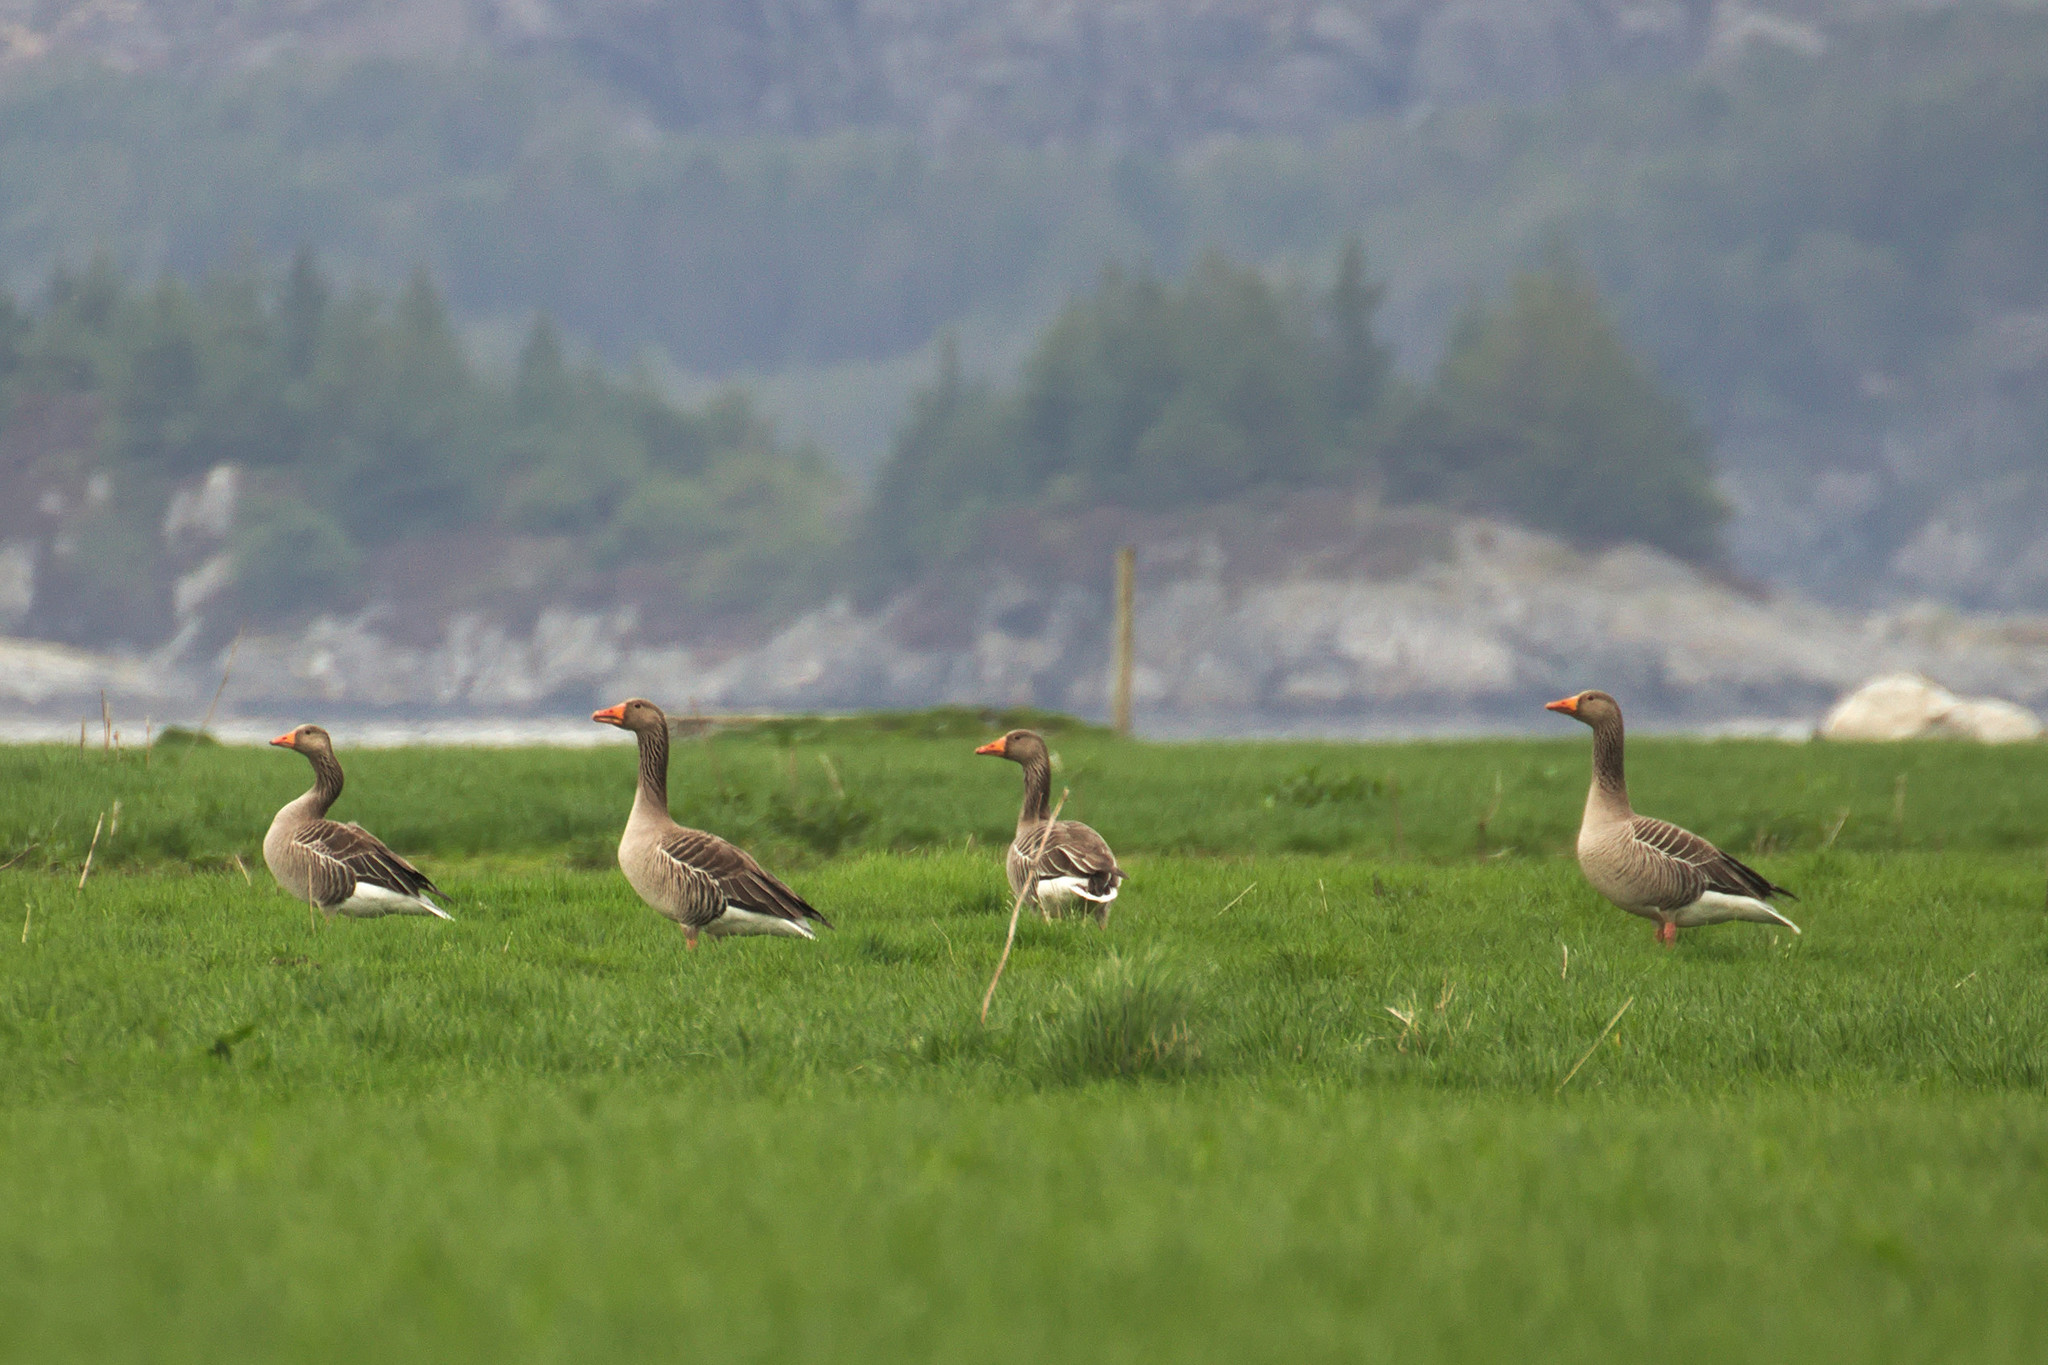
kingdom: Animalia
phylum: Chordata
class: Aves
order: Anseriformes
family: Anatidae
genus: Anser
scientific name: Anser anser
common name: Greylag goose
